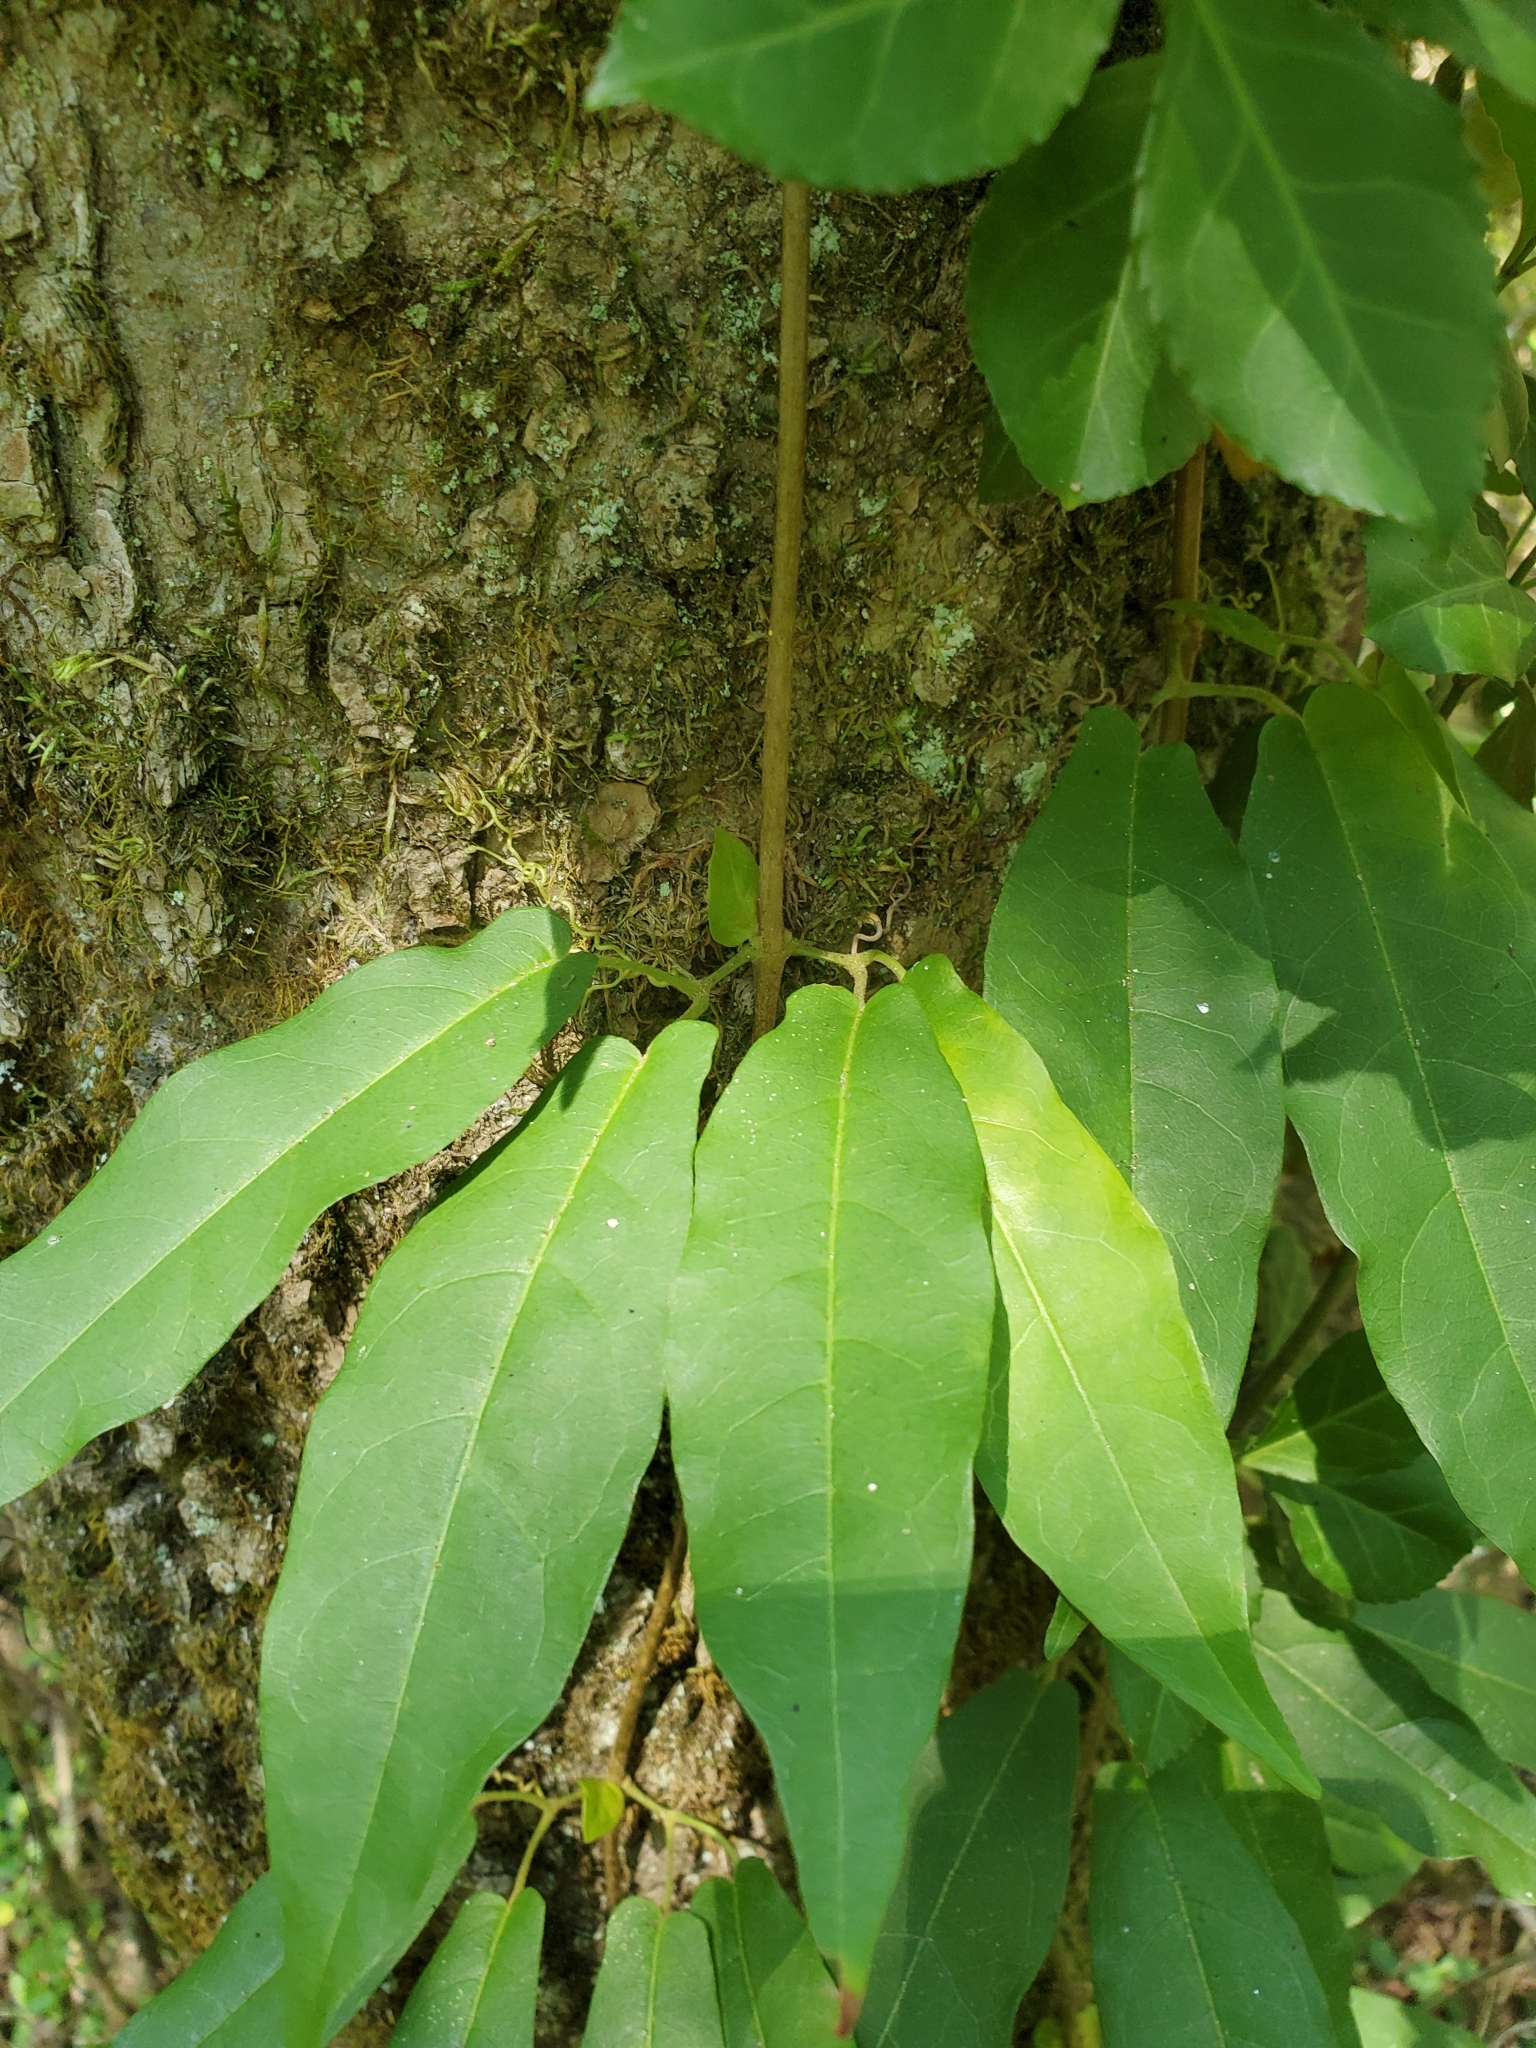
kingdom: Plantae
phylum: Tracheophyta
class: Magnoliopsida
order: Lamiales
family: Bignoniaceae
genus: Bignonia
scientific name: Bignonia capreolata
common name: Crossvine
